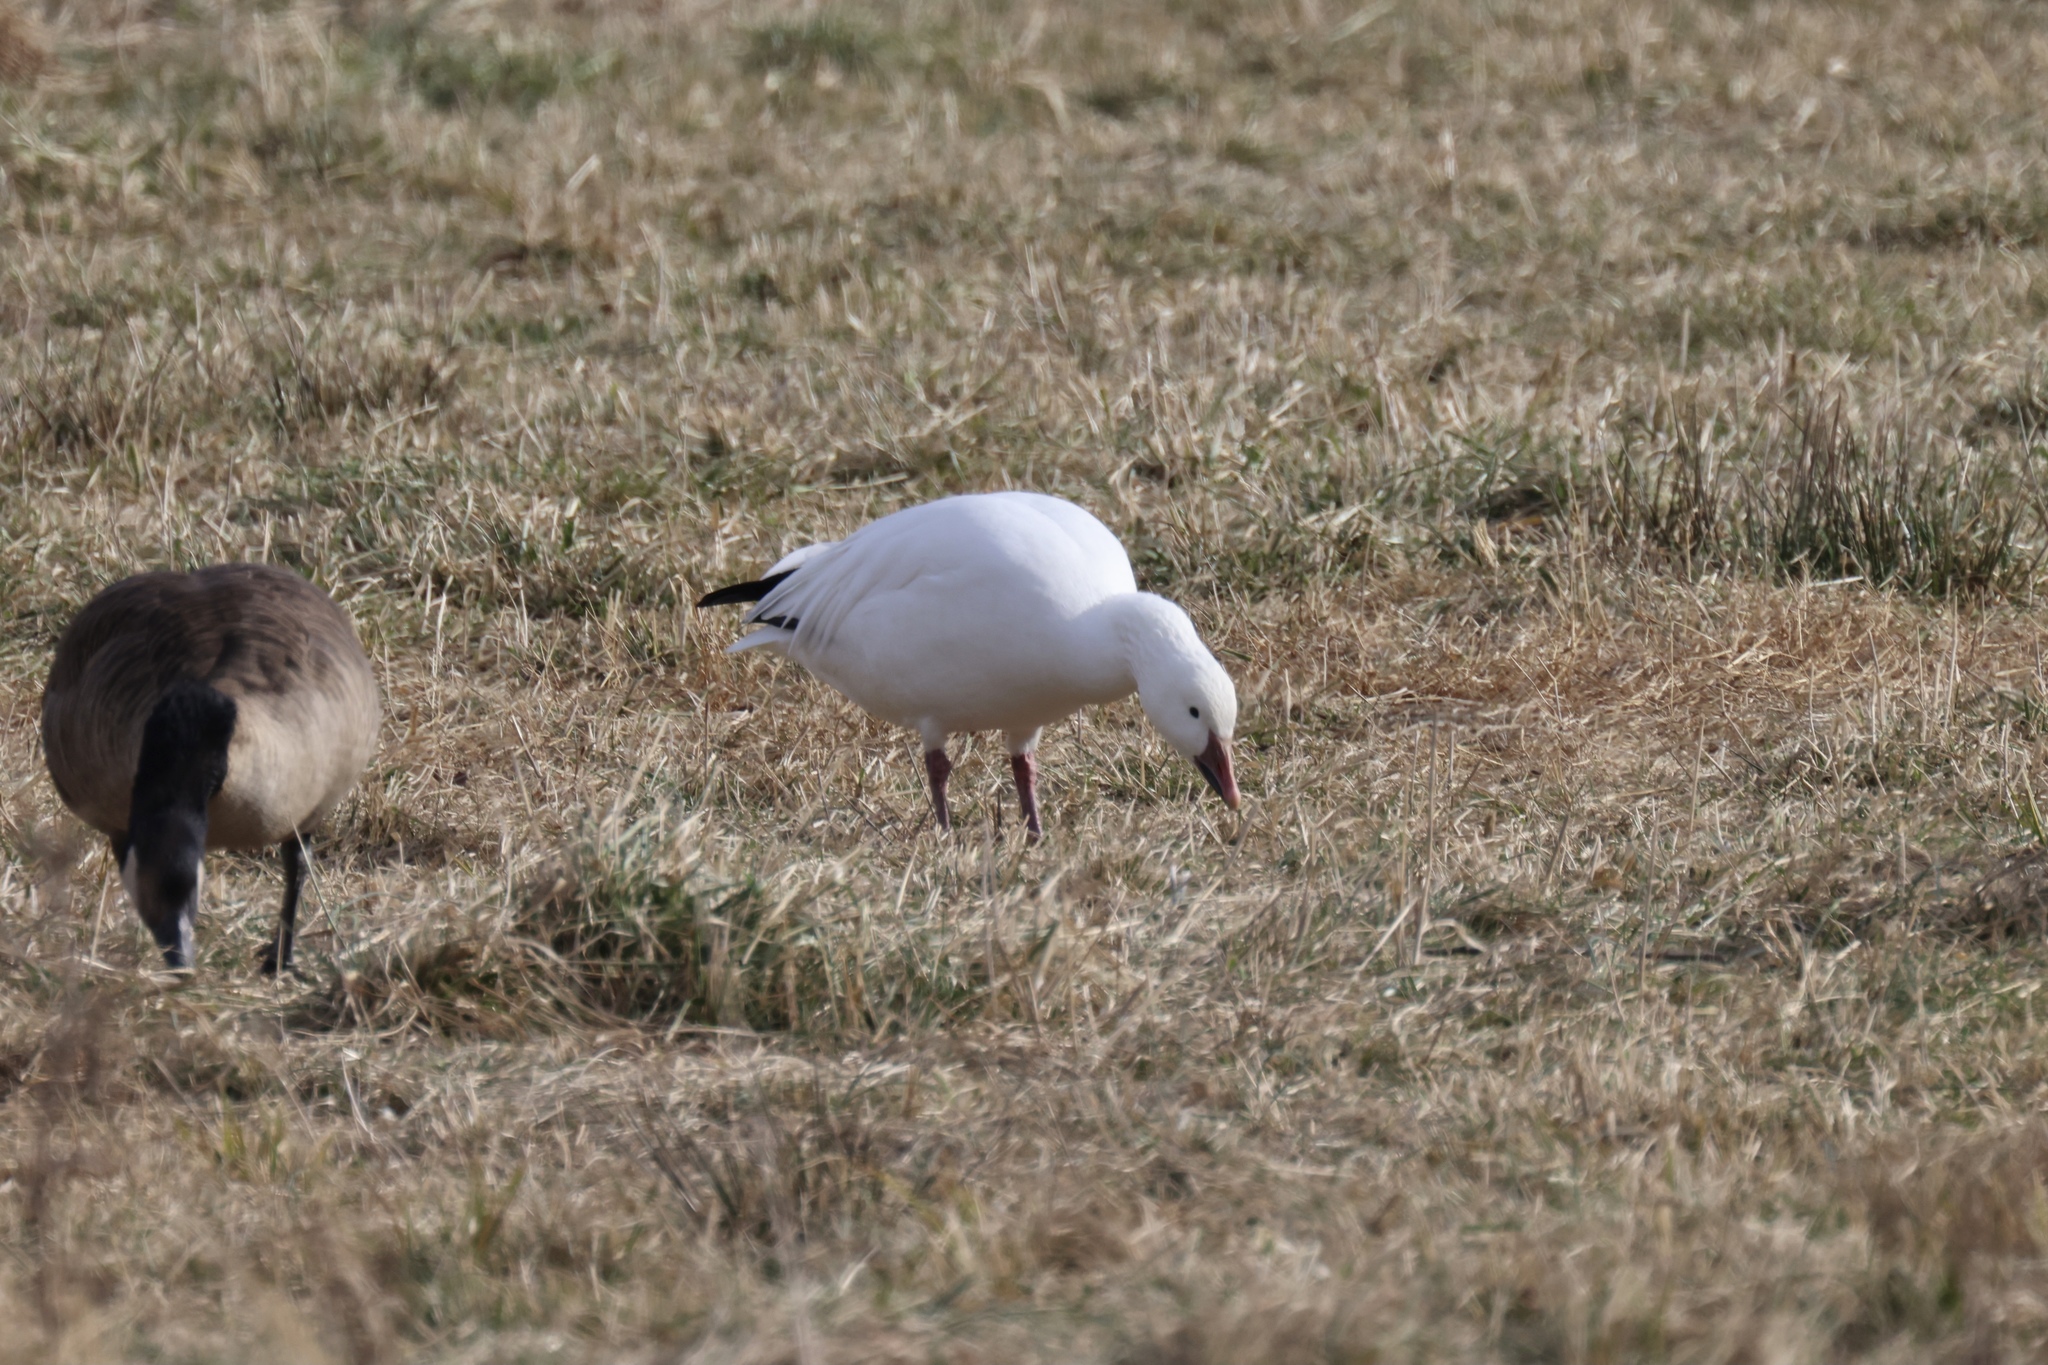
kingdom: Animalia
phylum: Chordata
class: Aves
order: Anseriformes
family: Anatidae
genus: Branta
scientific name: Branta canadensis
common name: Canada goose
